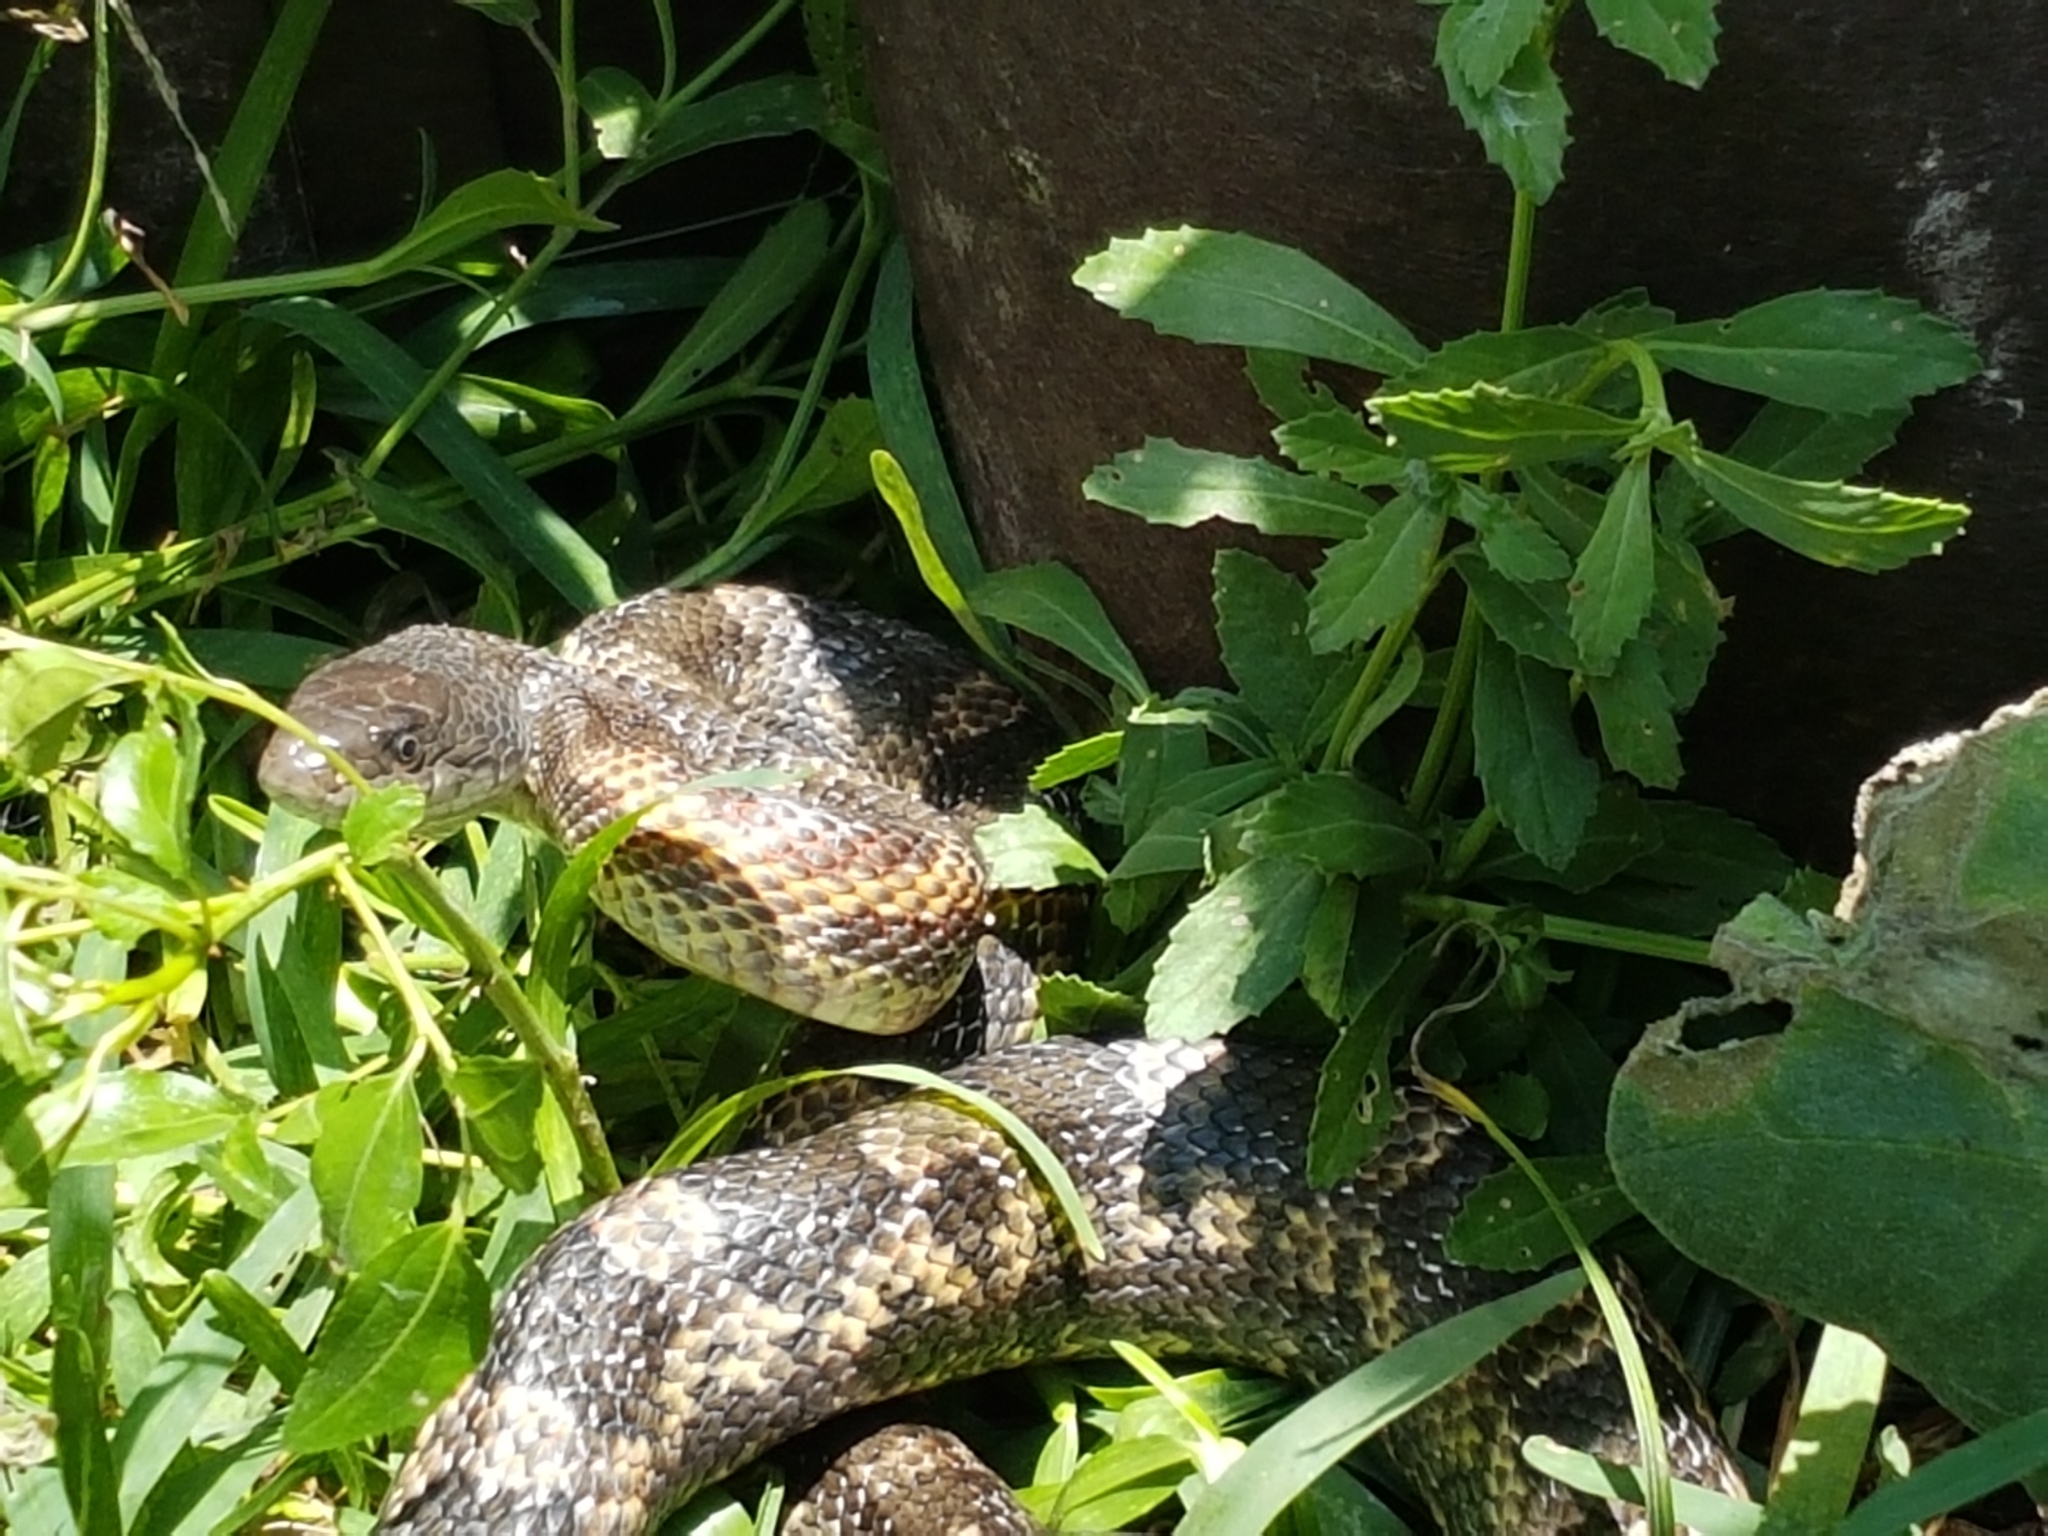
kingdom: Animalia
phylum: Chordata
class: Squamata
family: Colubridae
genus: Pantherophis
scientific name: Pantherophis obsoletus
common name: Black rat snake
